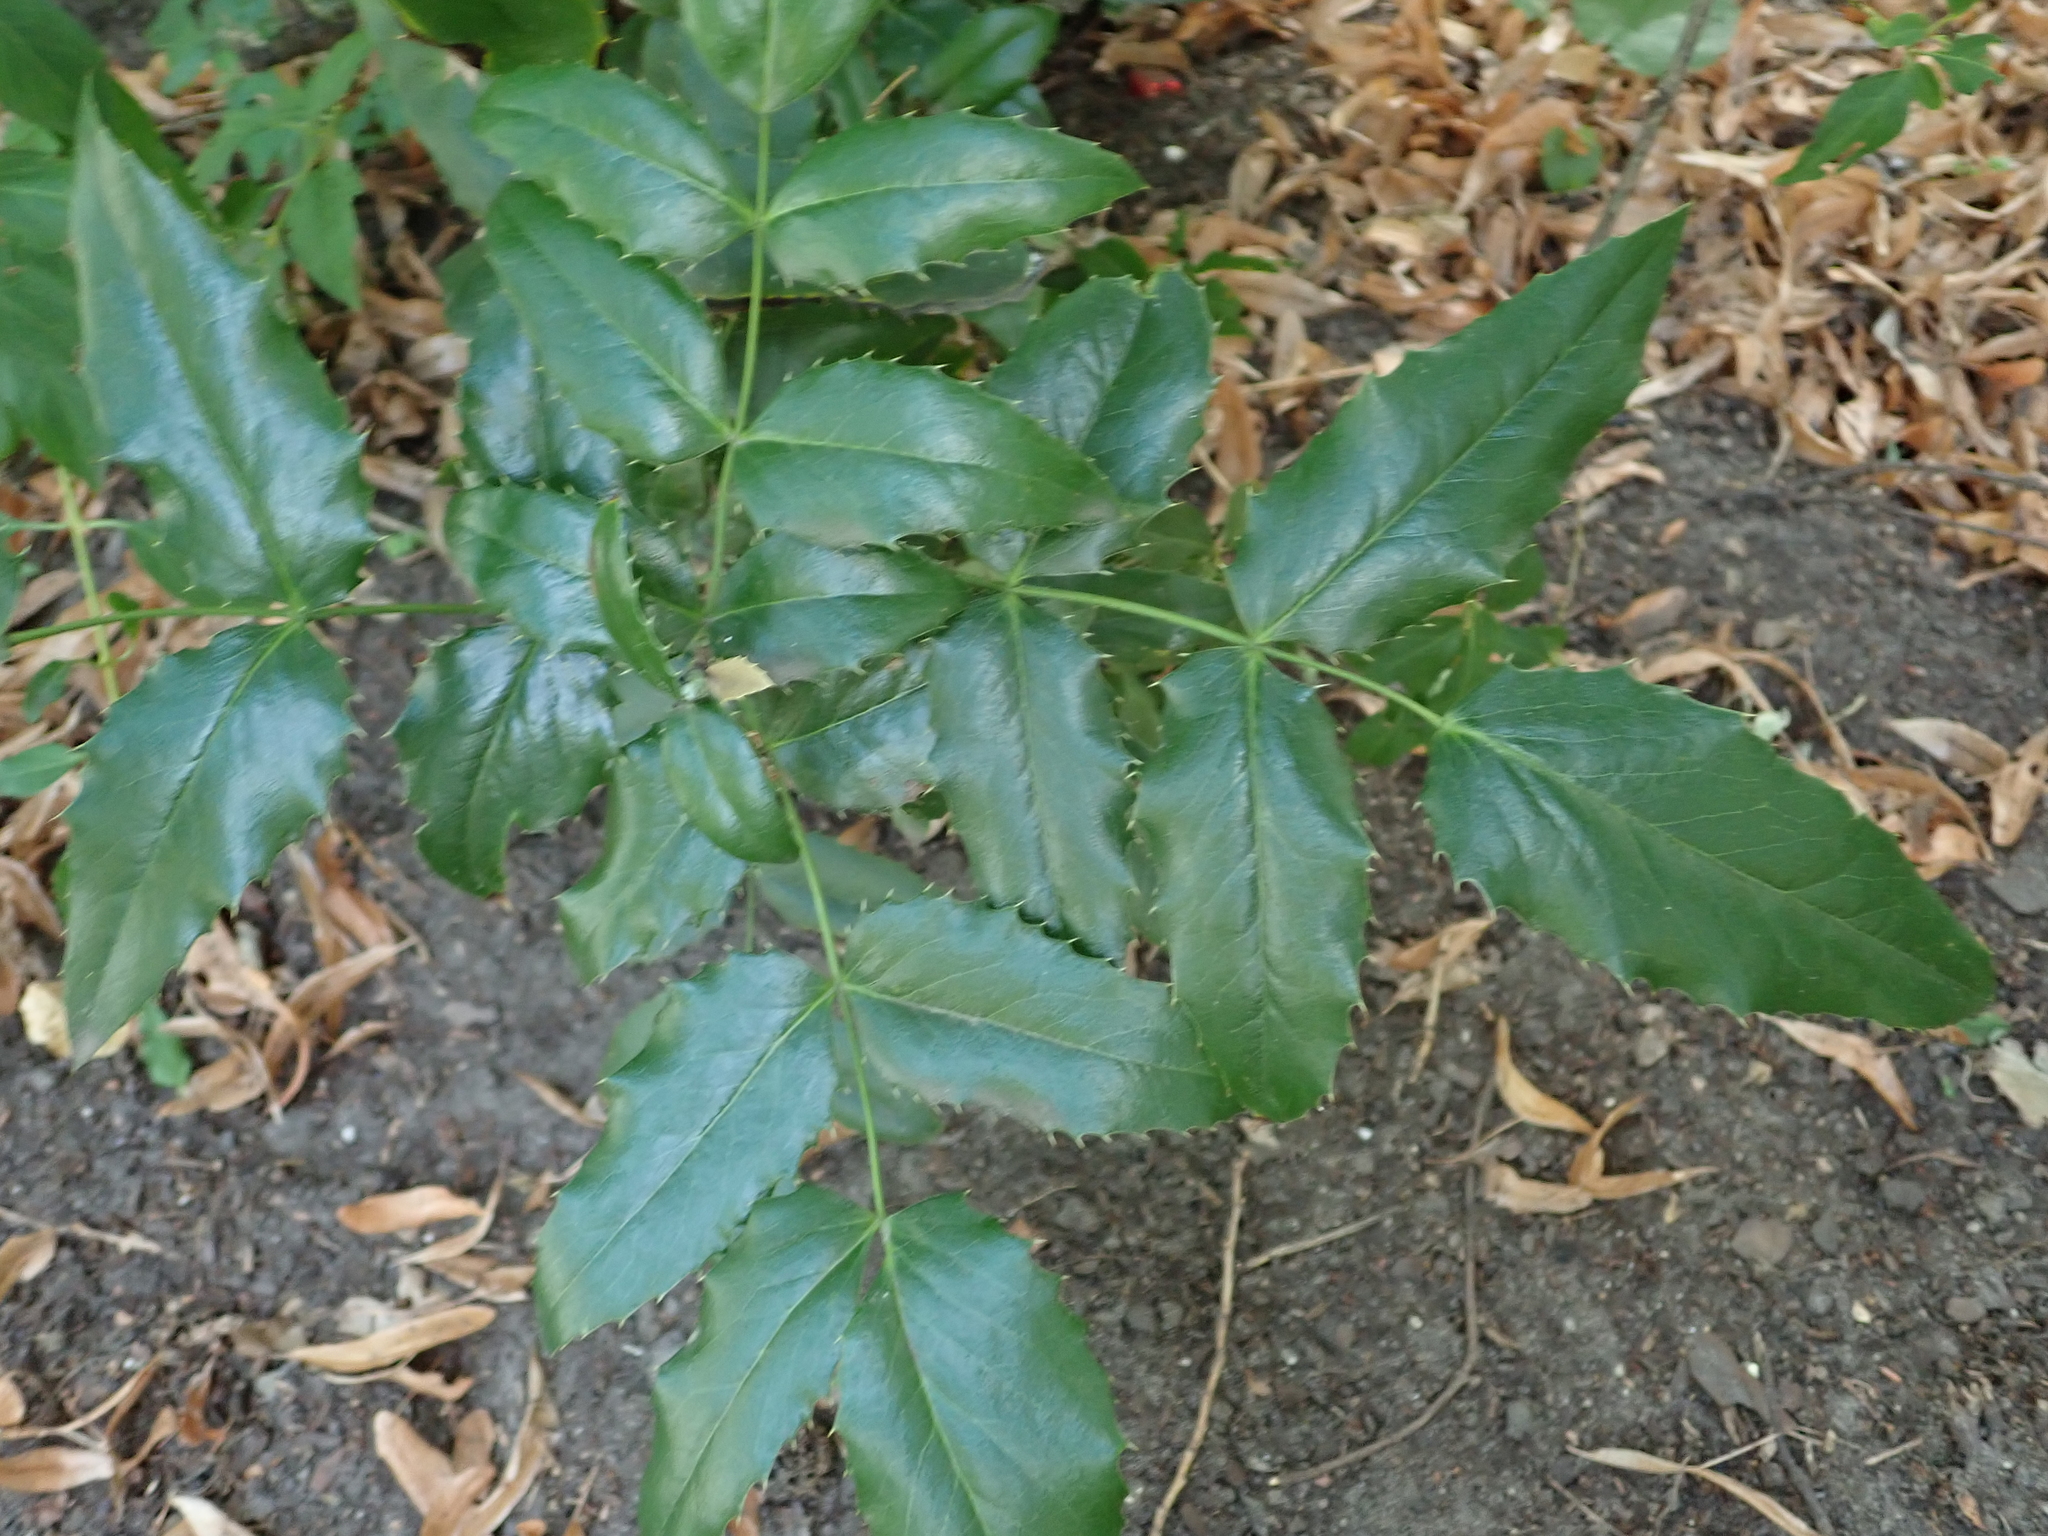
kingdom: Plantae
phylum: Tracheophyta
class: Magnoliopsida
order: Ranunculales
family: Berberidaceae
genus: Mahonia
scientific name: Mahonia aquifolium
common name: Oregon-grape
